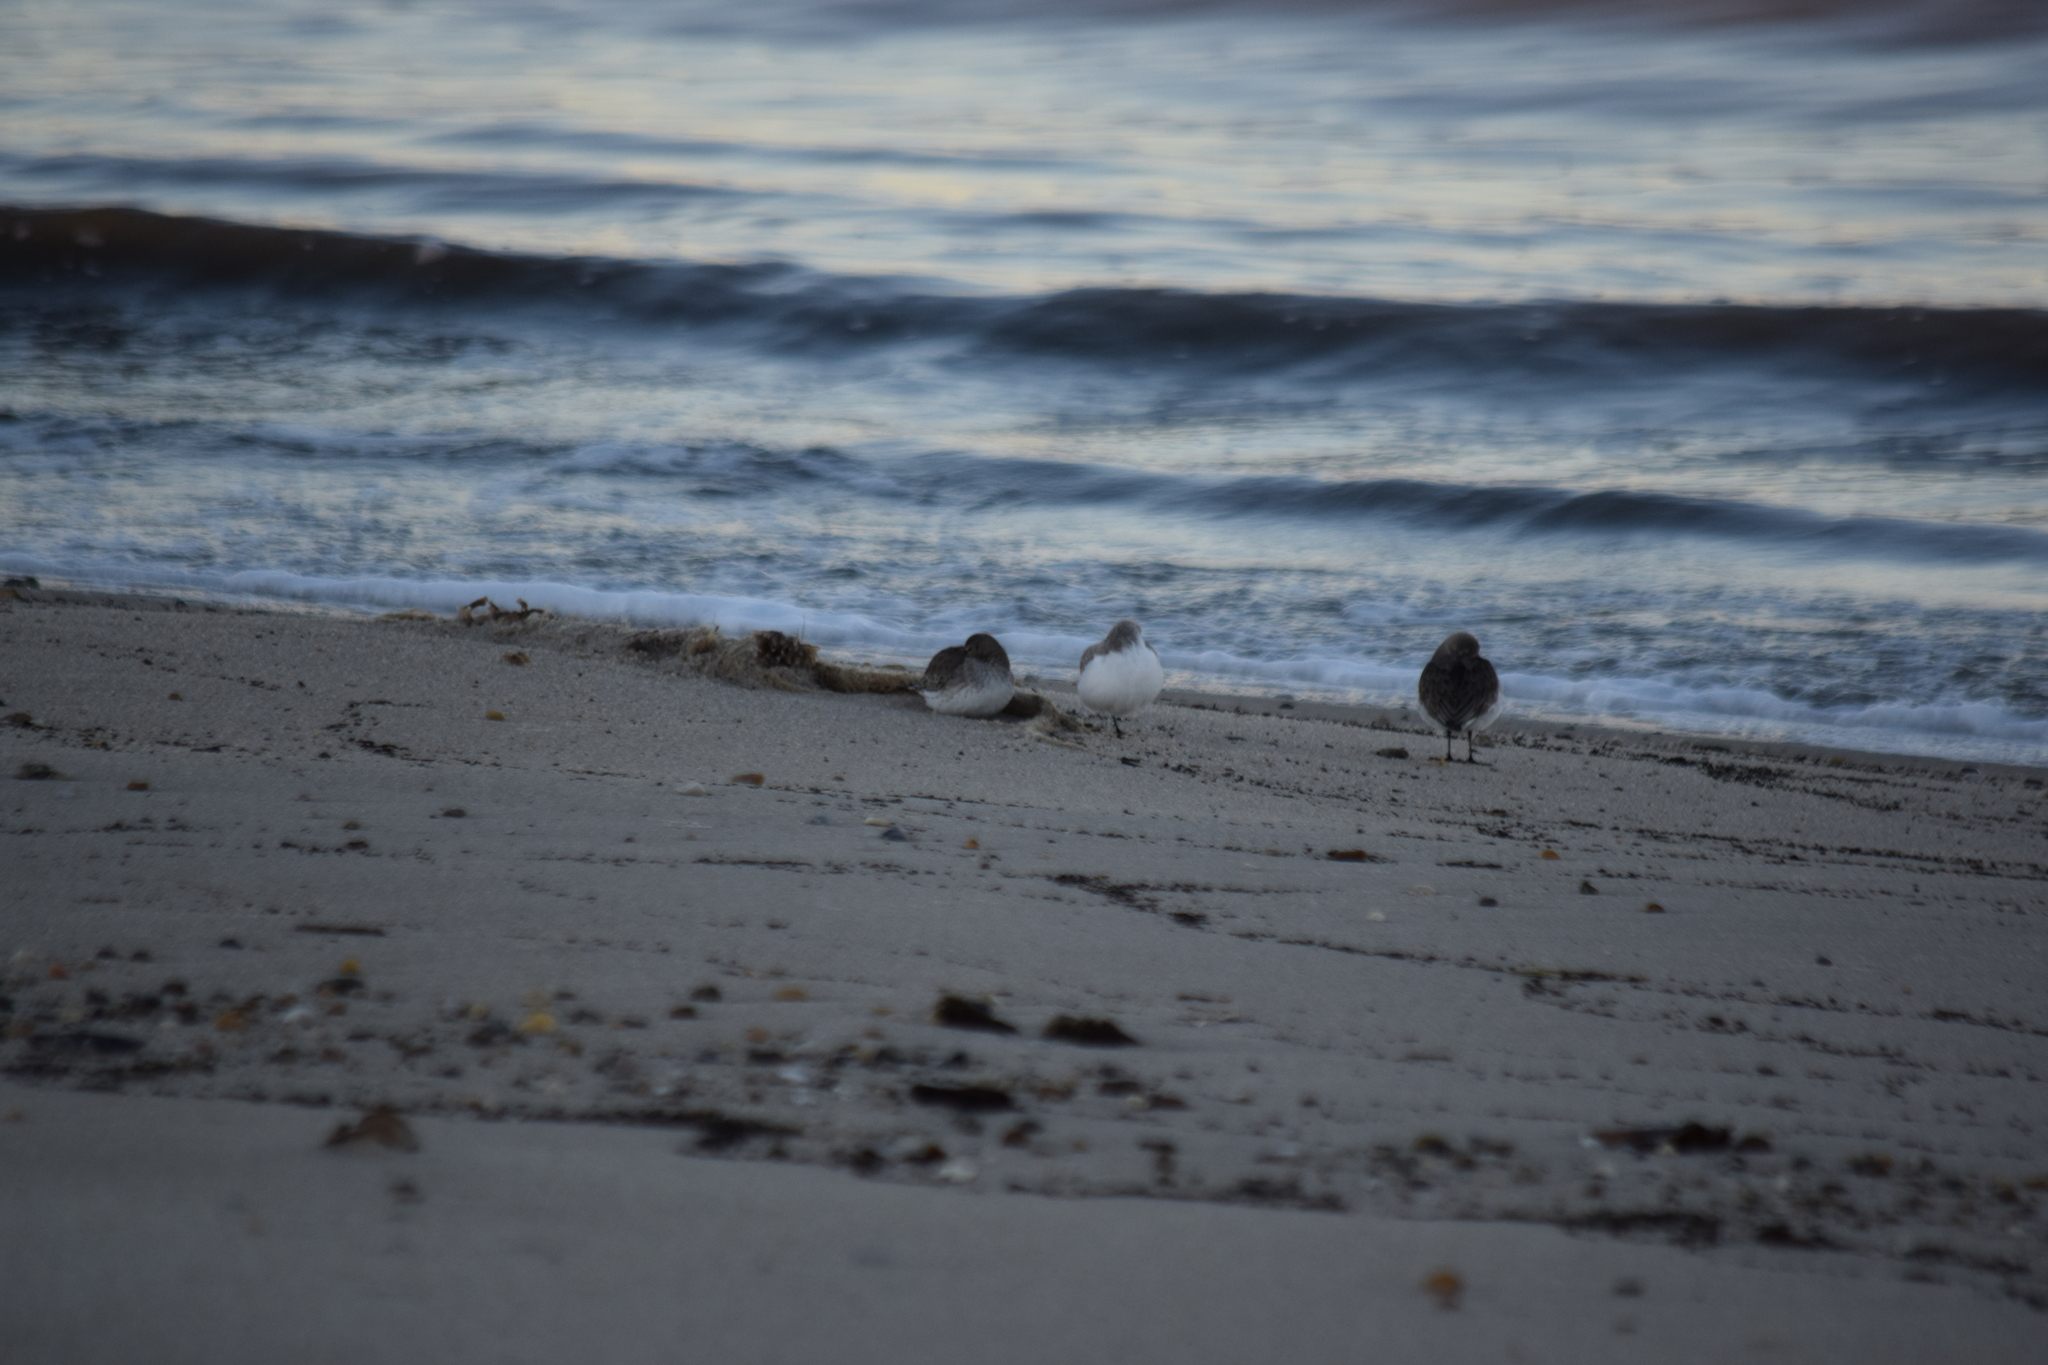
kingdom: Animalia
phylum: Chordata
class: Aves
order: Charadriiformes
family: Scolopacidae
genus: Calidris
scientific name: Calidris alba
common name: Sanderling
